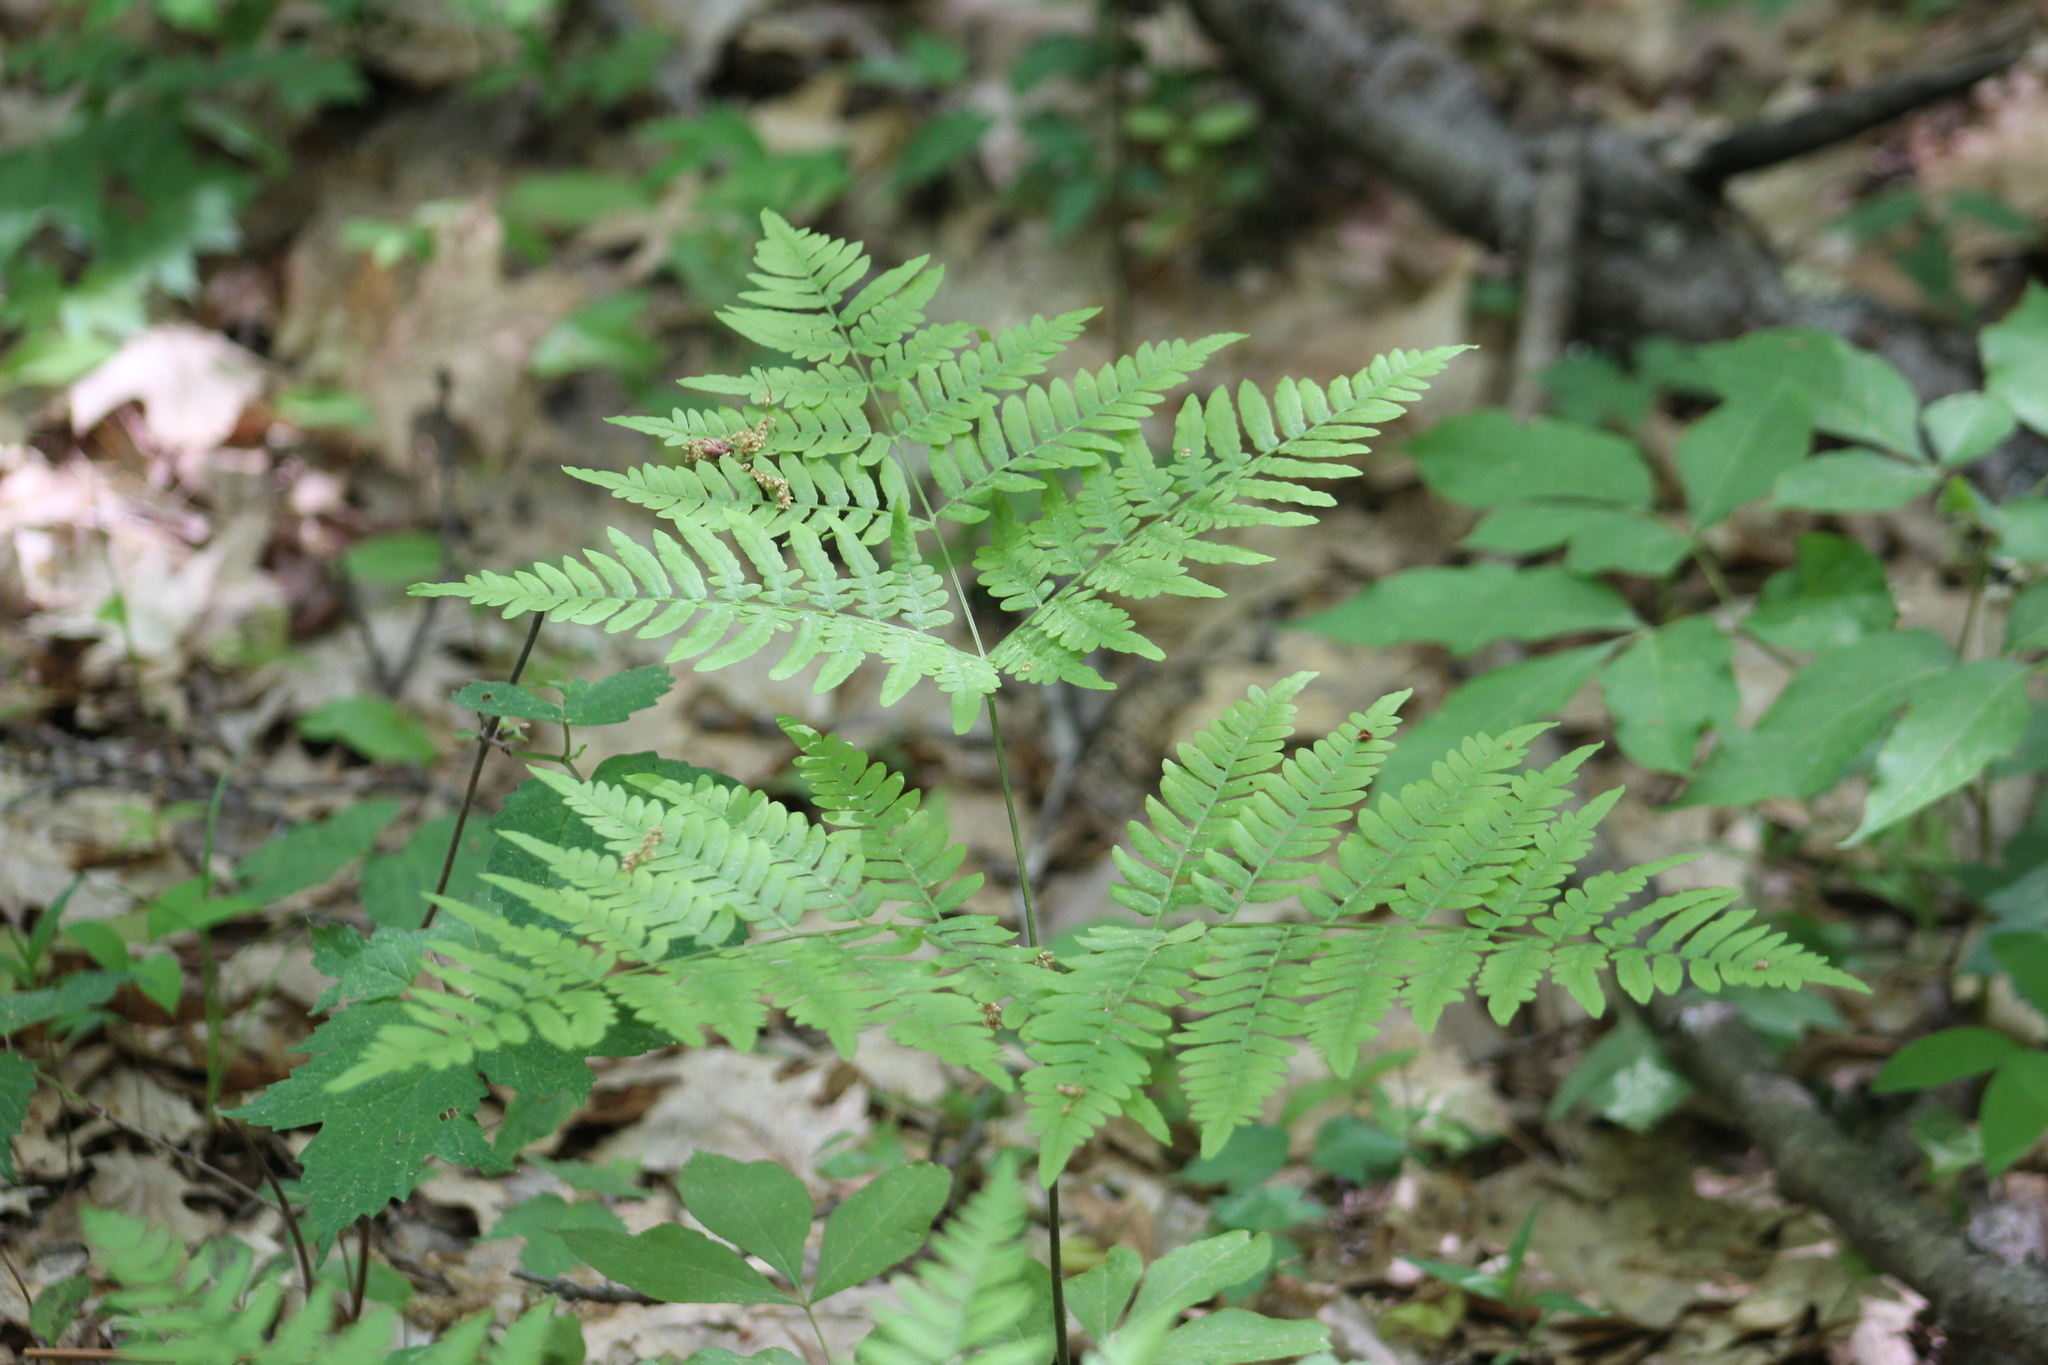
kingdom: Plantae
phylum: Tracheophyta
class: Polypodiopsida
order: Polypodiales
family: Dennstaedtiaceae
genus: Pteridium
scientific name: Pteridium aquilinum
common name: Bracken
